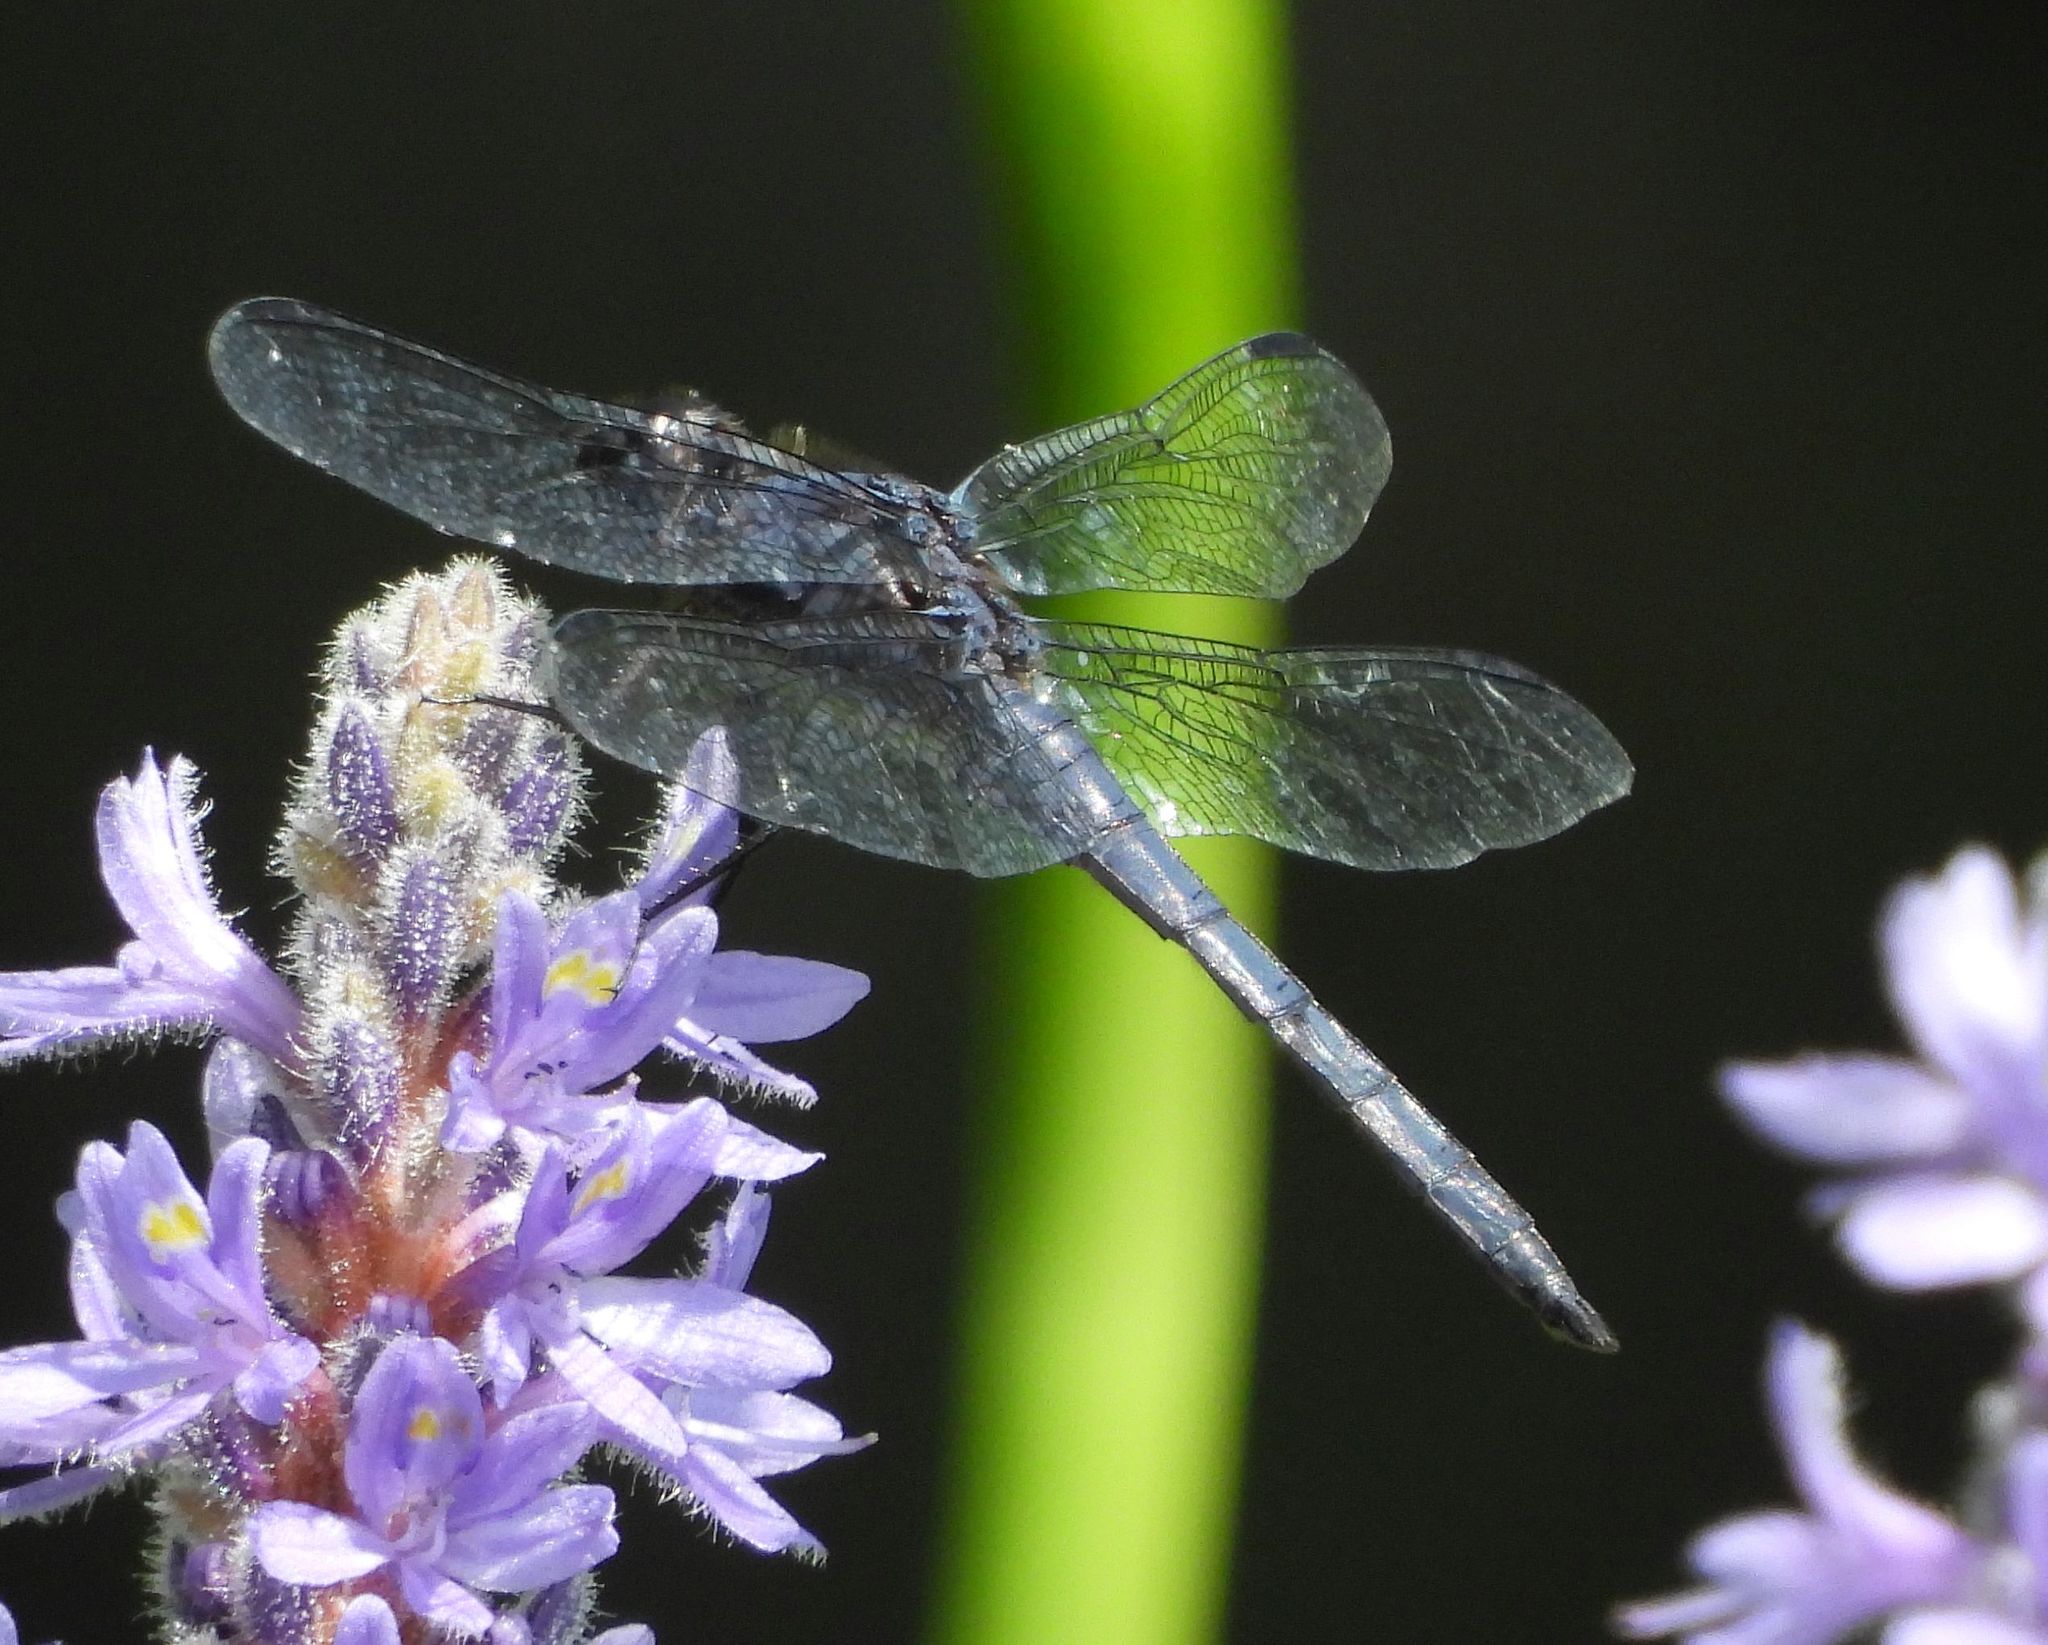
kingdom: Animalia
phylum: Arthropoda
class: Insecta
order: Odonata
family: Libellulidae
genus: Libellula
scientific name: Libellula incesta
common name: Slaty skimmer
